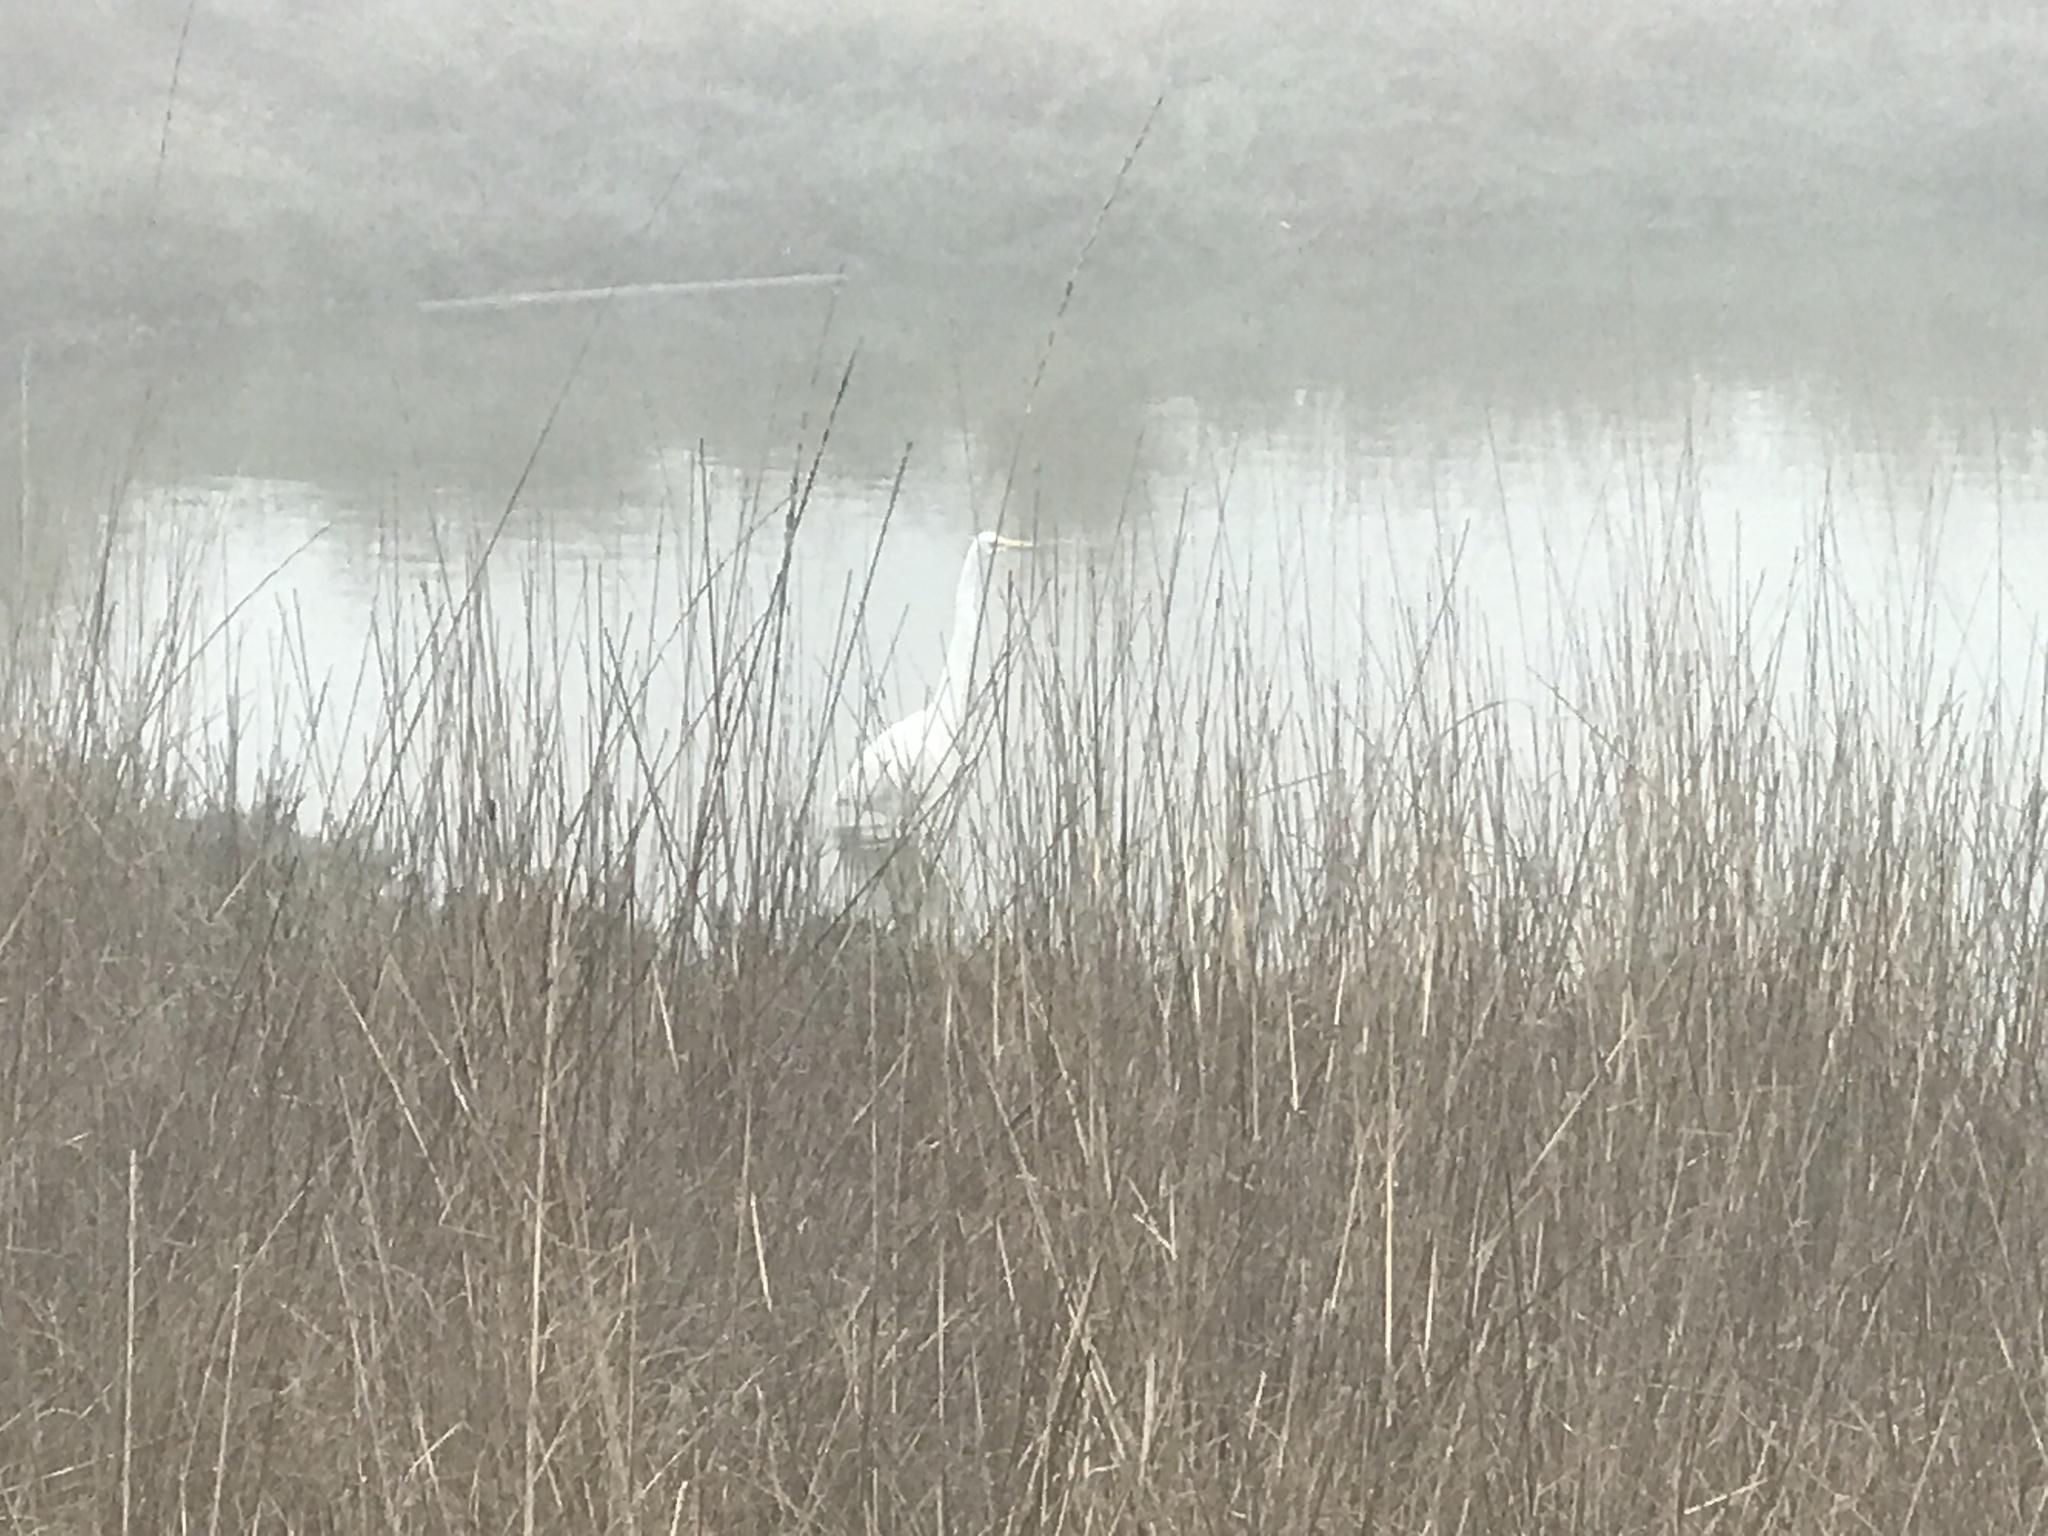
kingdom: Animalia
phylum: Chordata
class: Aves
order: Pelecaniformes
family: Ardeidae
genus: Ardea
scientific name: Ardea alba
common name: Great egret
